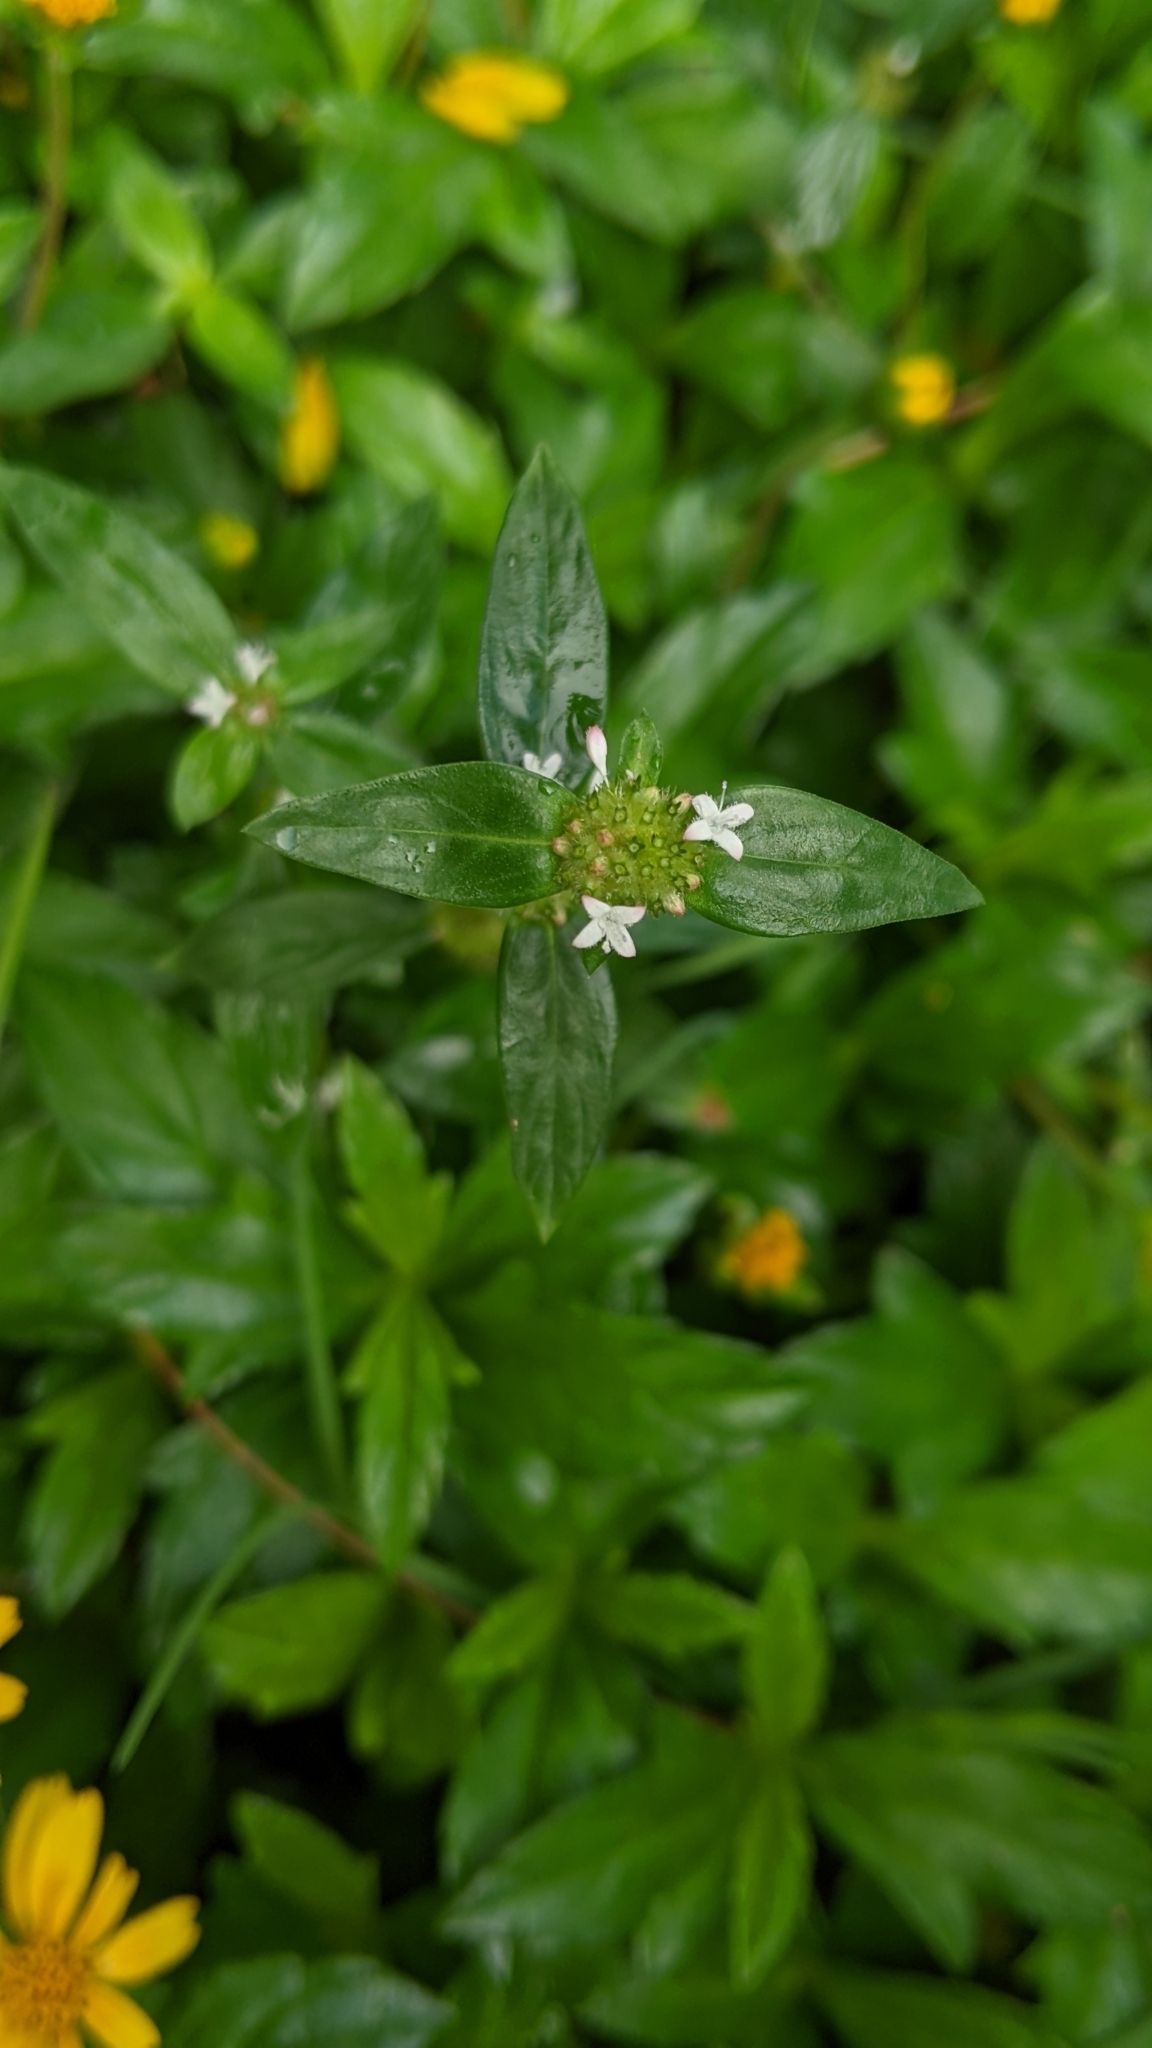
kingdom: Plantae
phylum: Tracheophyta
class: Magnoliopsida
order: Gentianales
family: Rubiaceae
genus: Spermacoce
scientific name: Spermacoce remota
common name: Woodland false buttonweed
